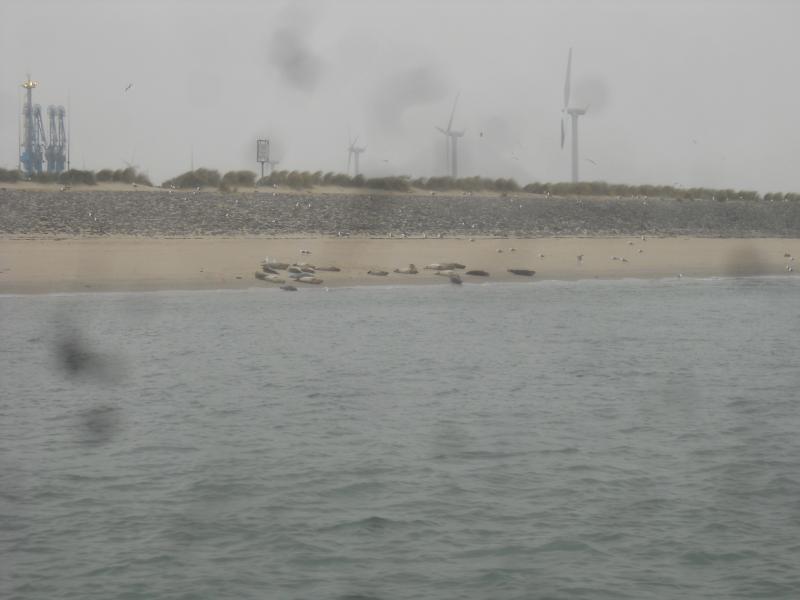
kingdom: Animalia
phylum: Chordata
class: Mammalia
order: Carnivora
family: Phocidae
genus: Phoca
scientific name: Phoca vitulina
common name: Harbor seal
